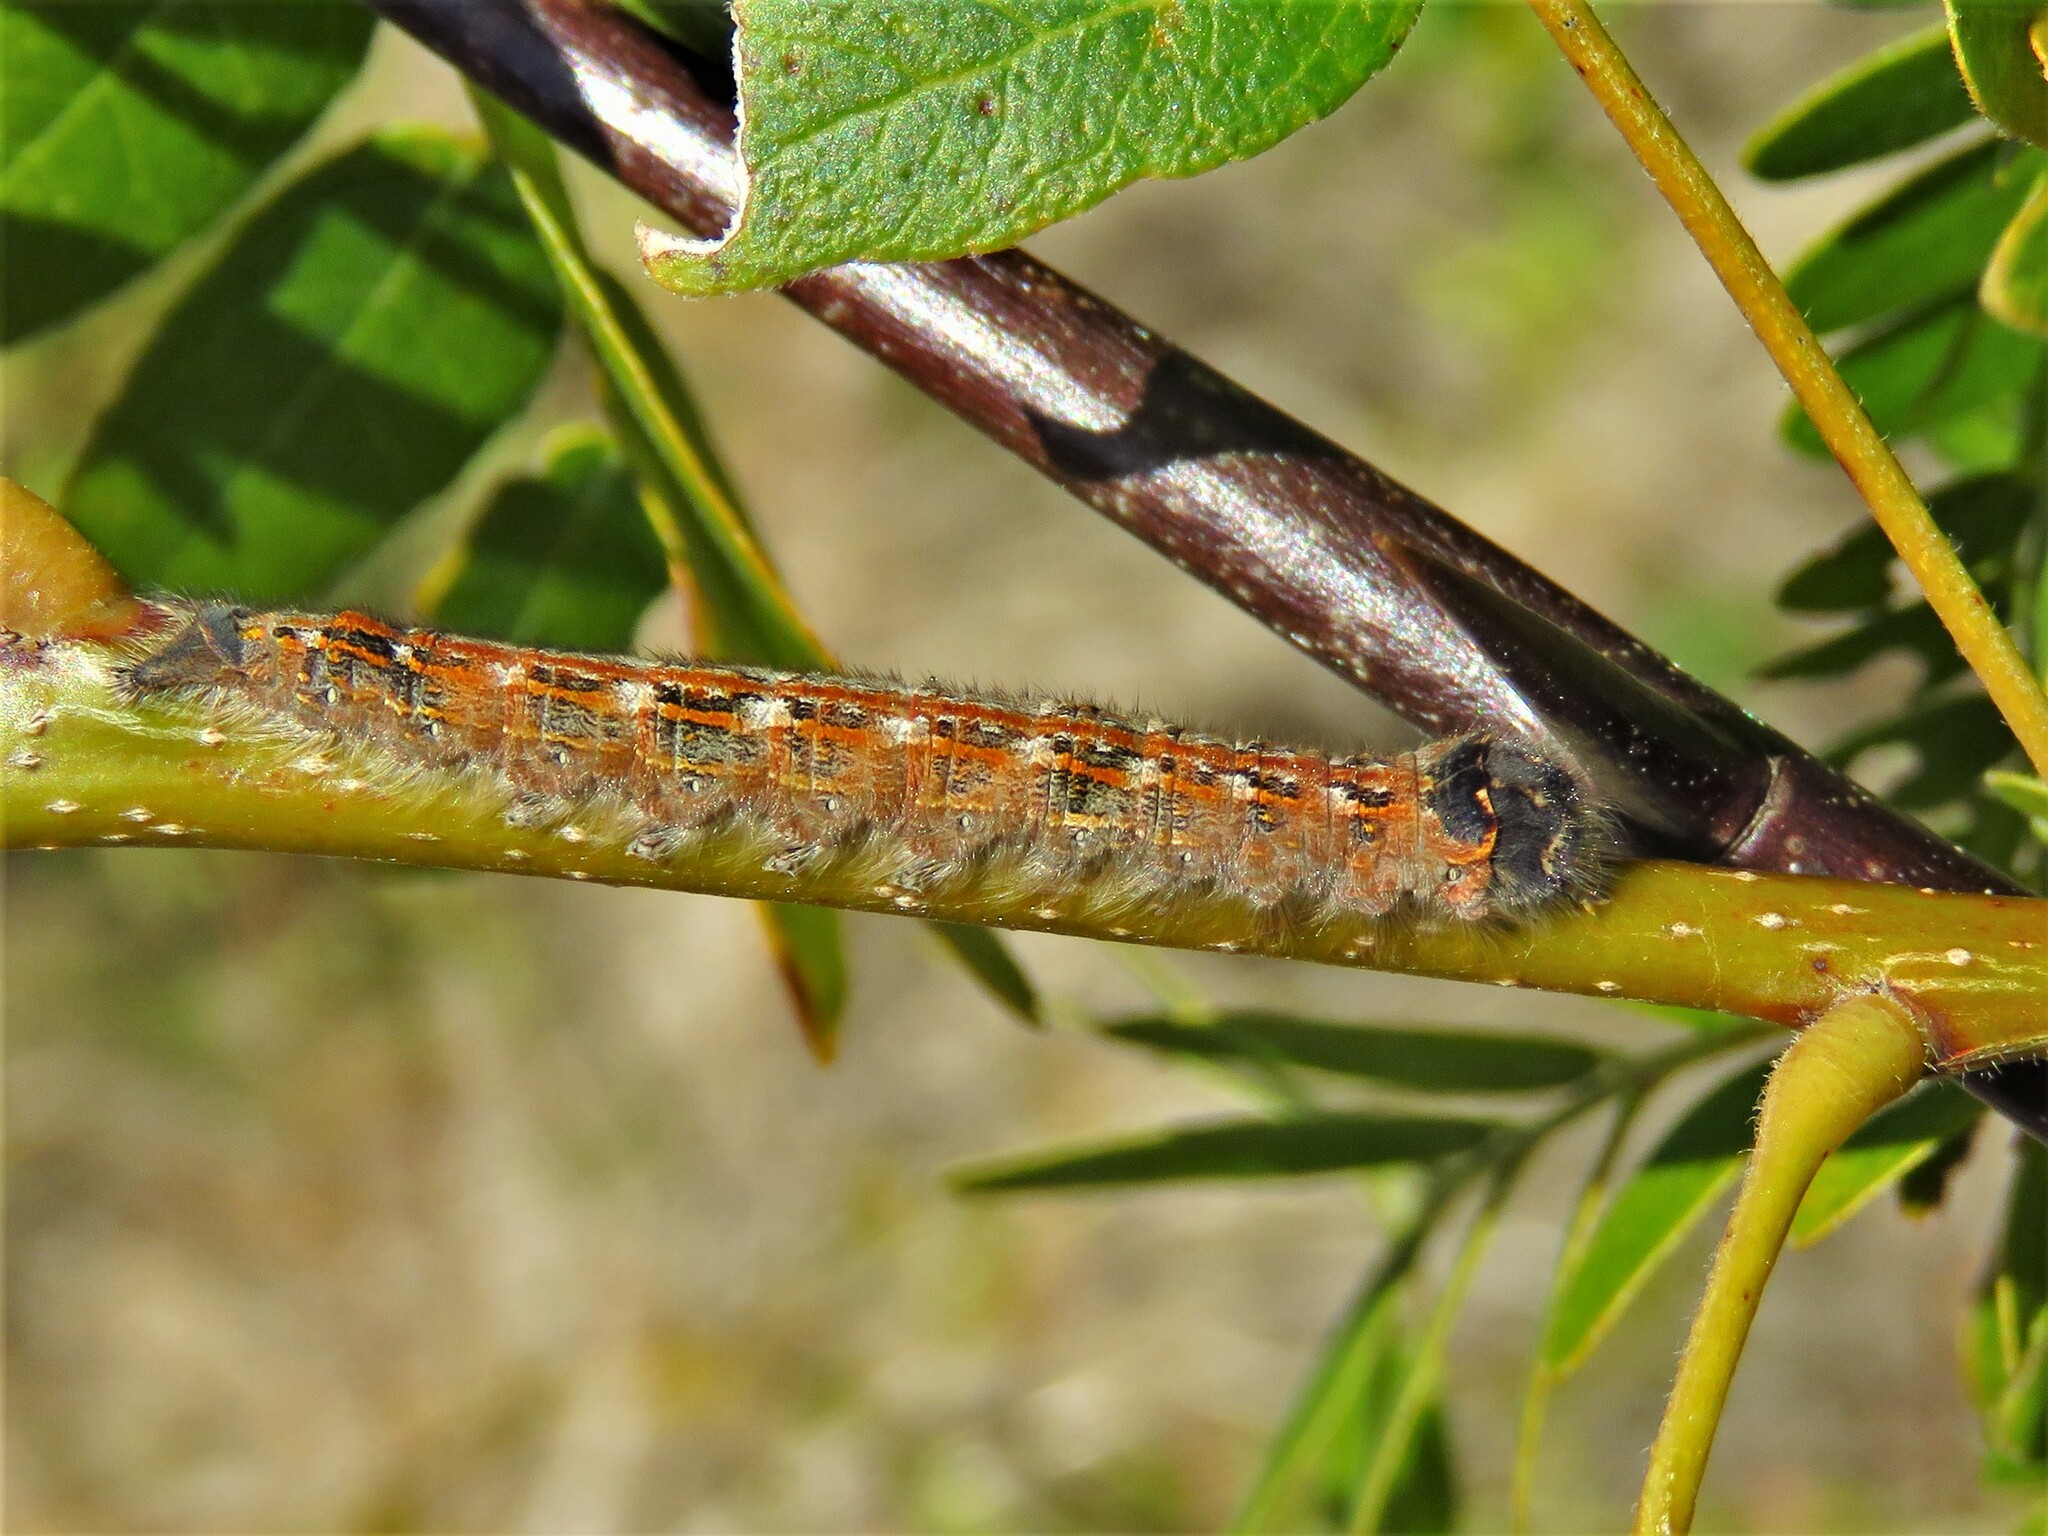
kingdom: Animalia
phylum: Arthropoda
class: Insecta
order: Lepidoptera
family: Lasiocampidae
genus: Heteropacha
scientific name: Heteropacha rileyana
